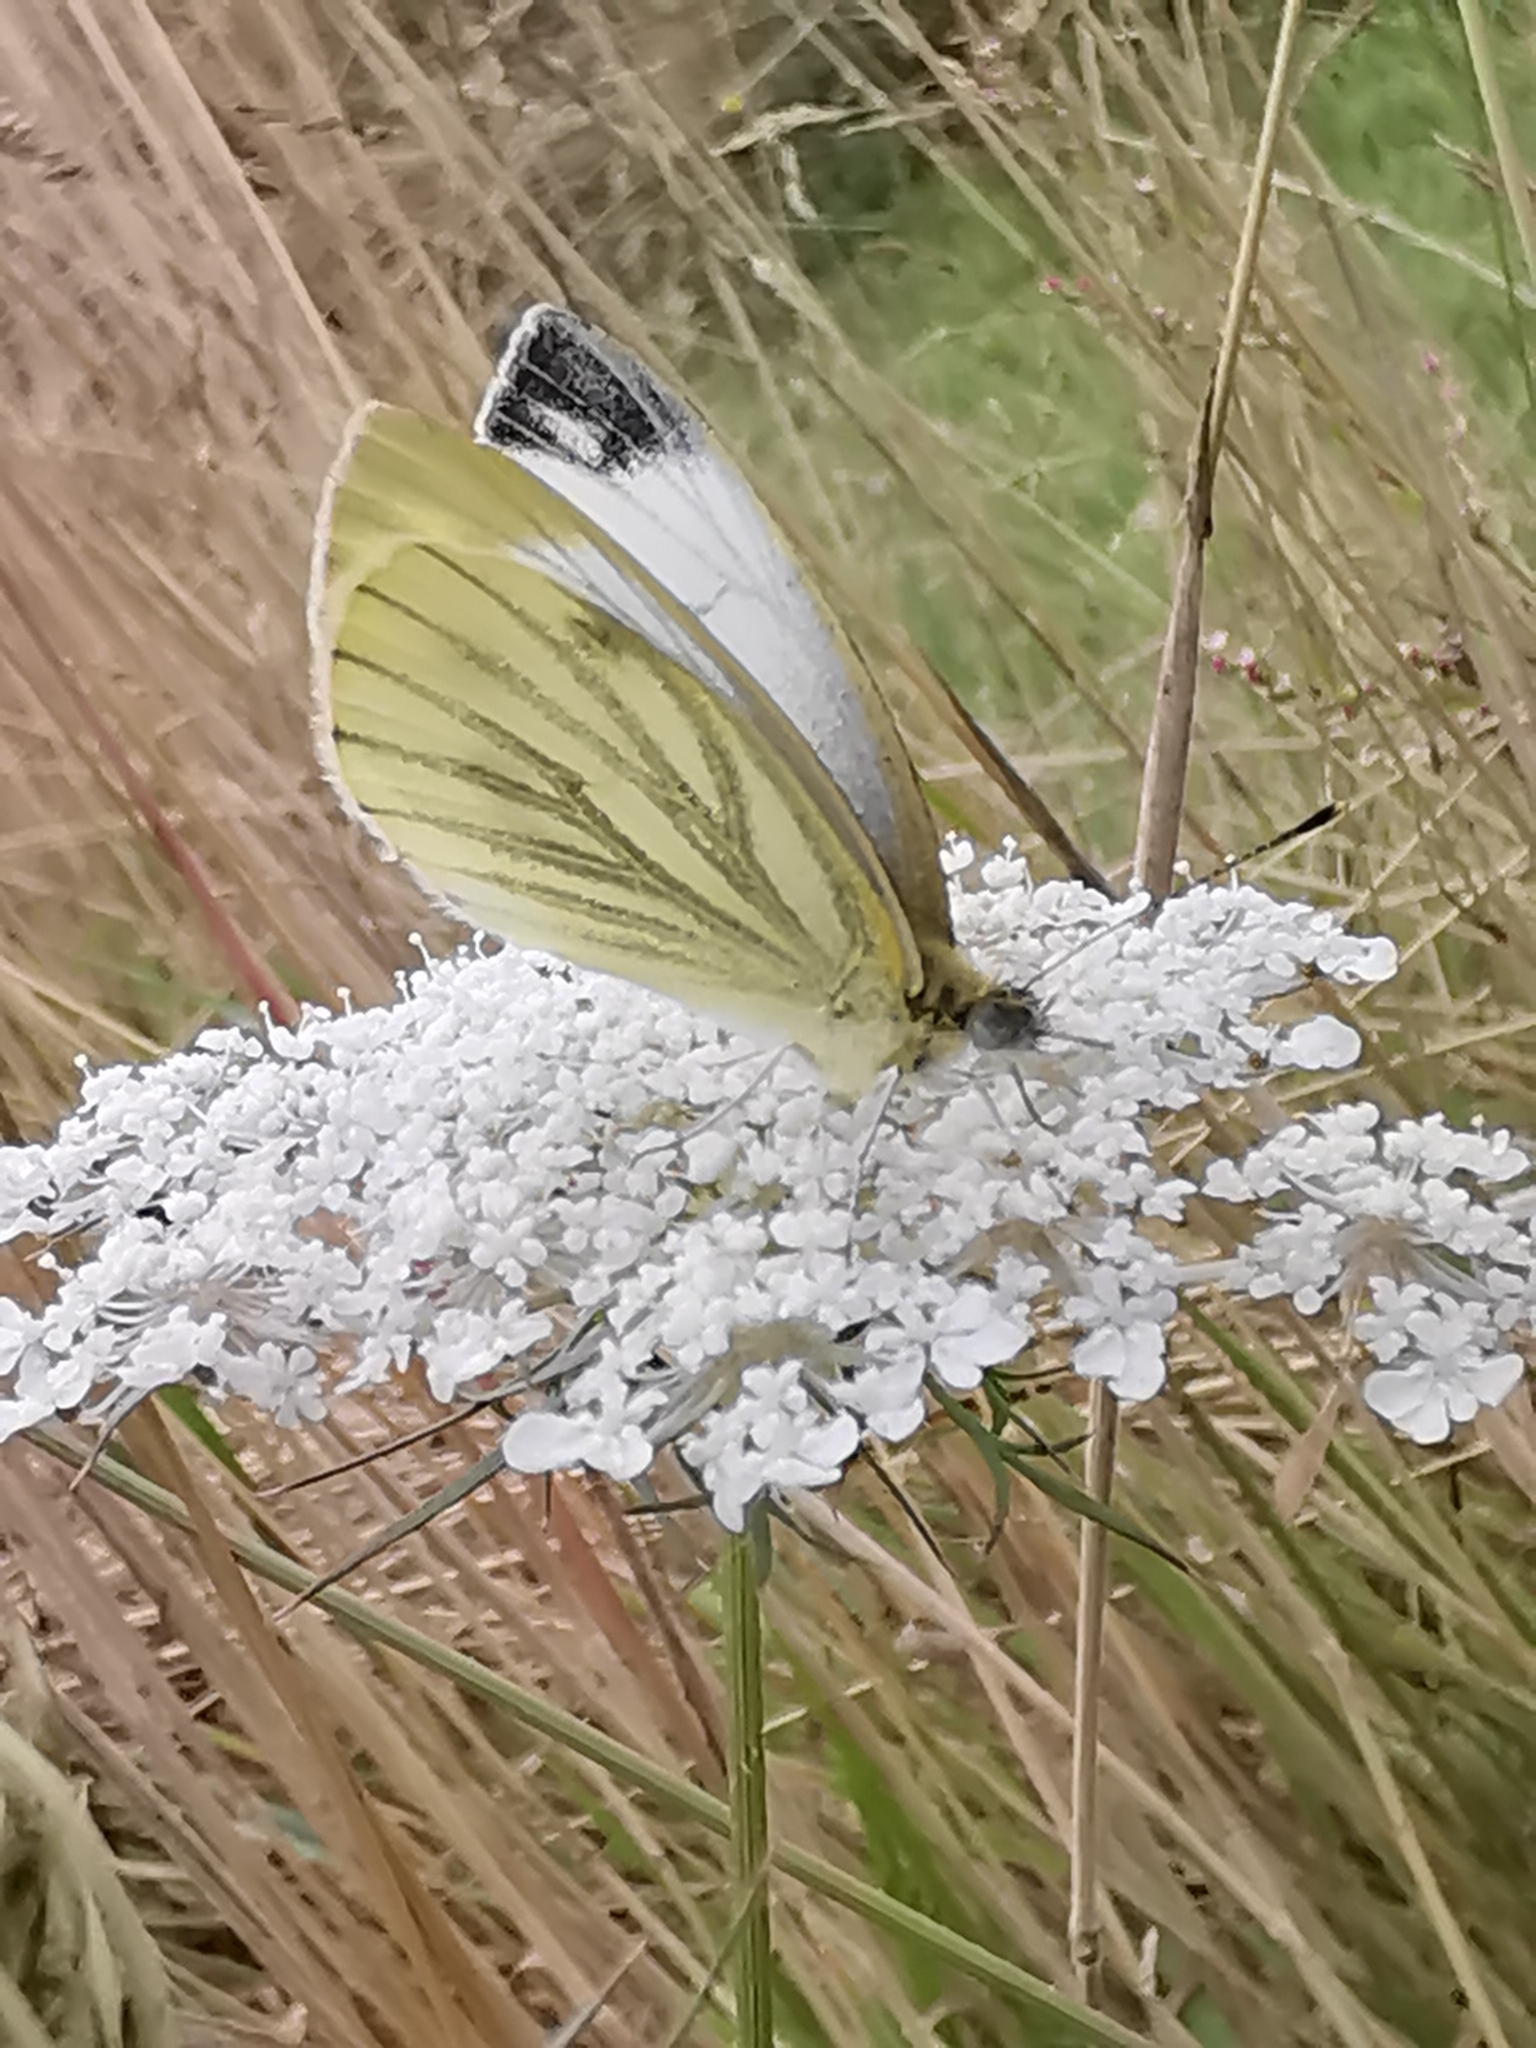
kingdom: Animalia
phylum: Arthropoda
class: Insecta
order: Lepidoptera
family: Pieridae
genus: Pieris
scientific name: Pieris napi
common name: Green-veined white
